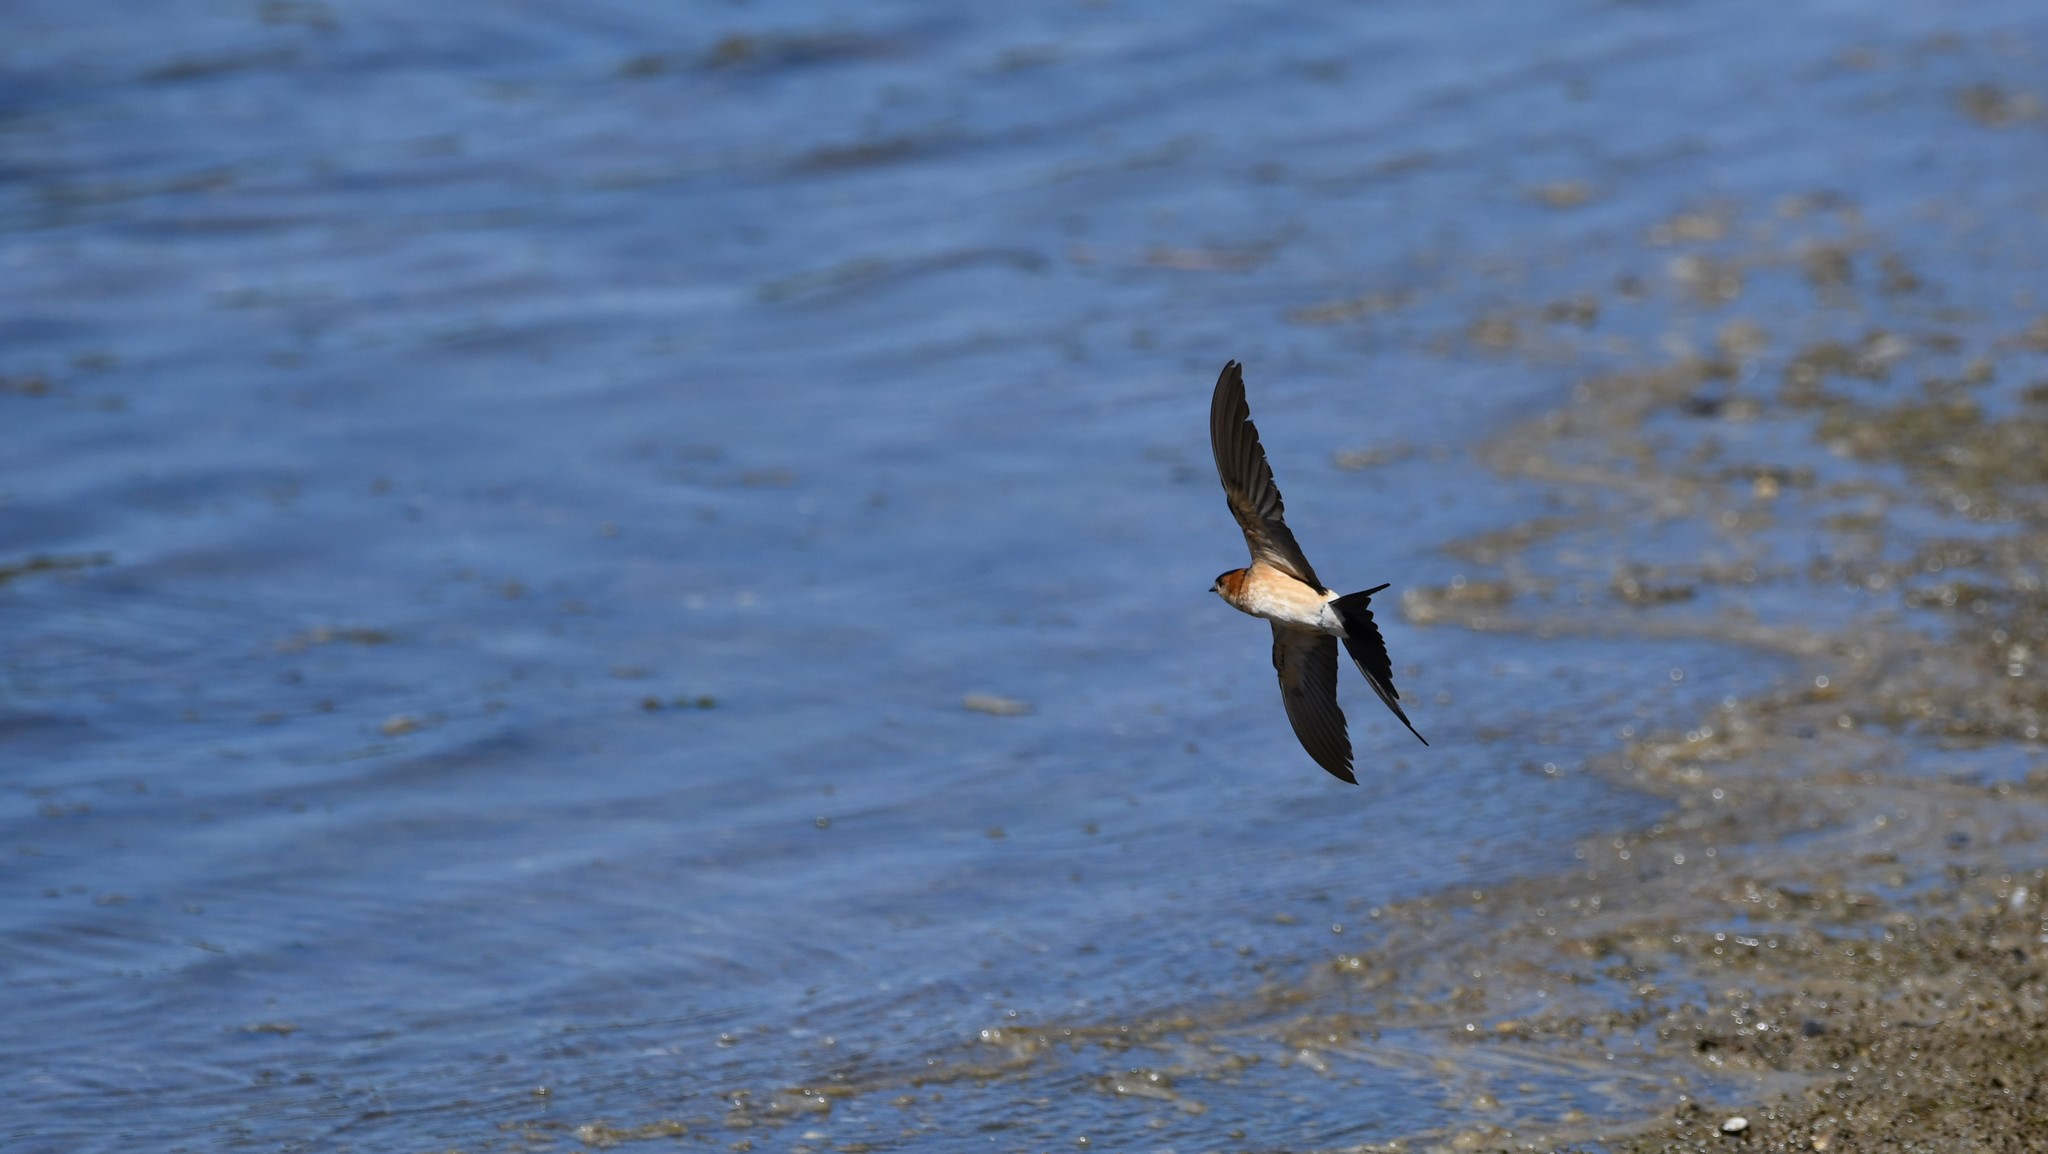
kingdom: Animalia
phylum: Chordata
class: Aves
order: Passeriformes
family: Hirundinidae
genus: Cecropis
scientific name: Cecropis daurica
